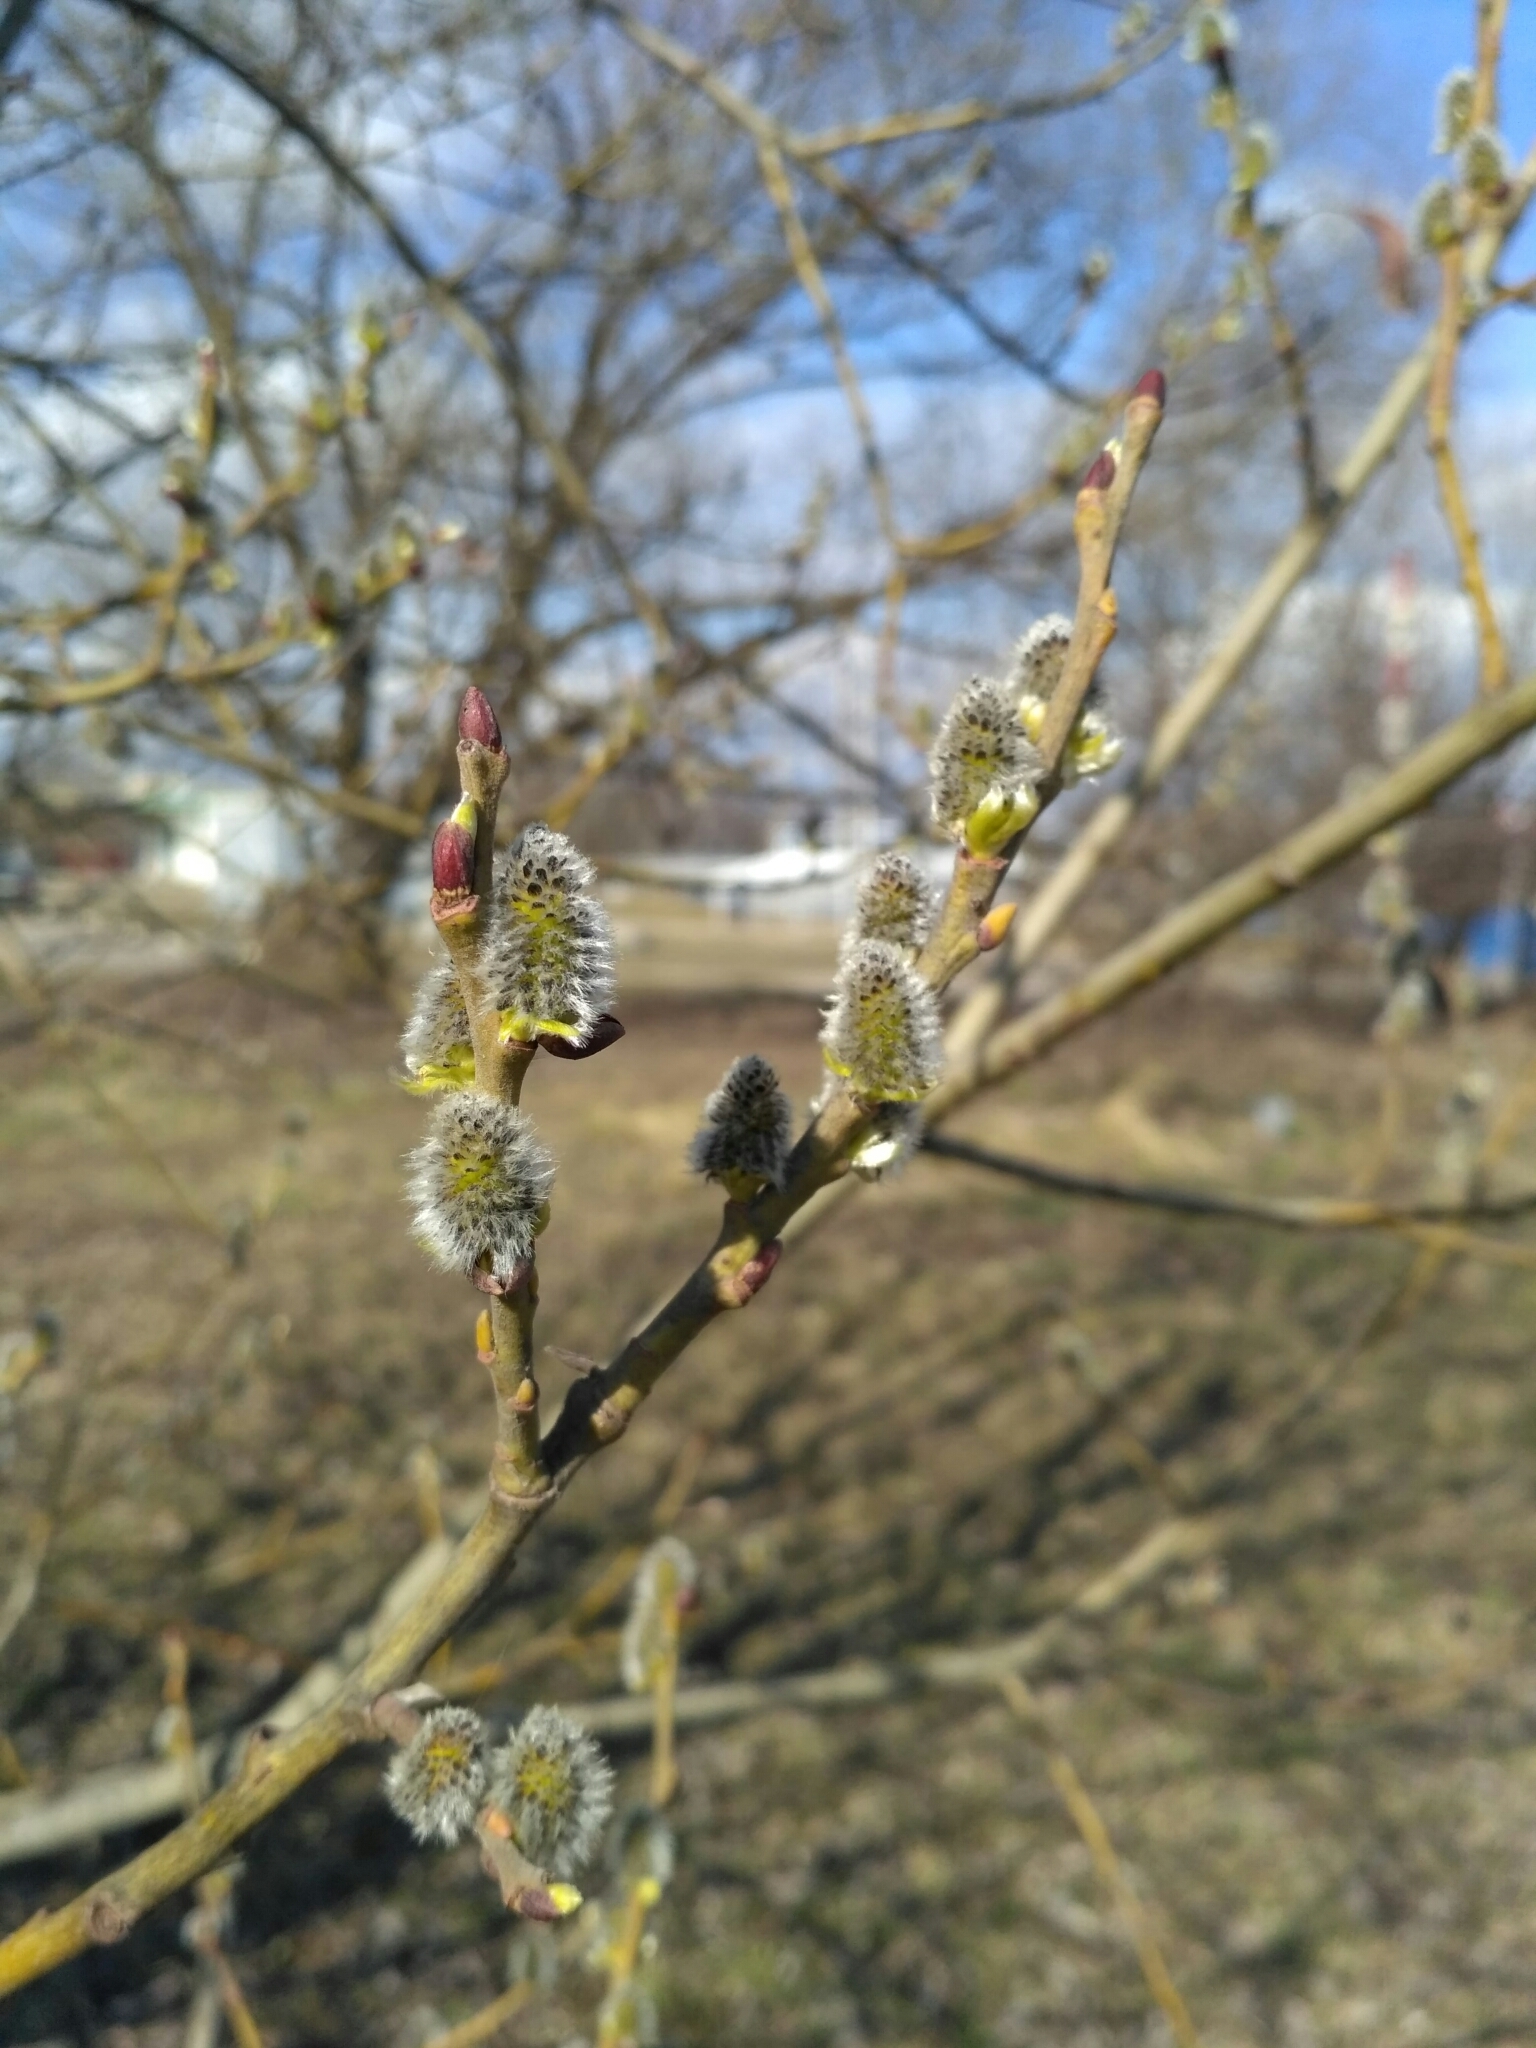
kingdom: Plantae
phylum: Tracheophyta
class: Magnoliopsida
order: Malpighiales
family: Salicaceae
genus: Salix
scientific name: Salix caprea
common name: Goat willow
